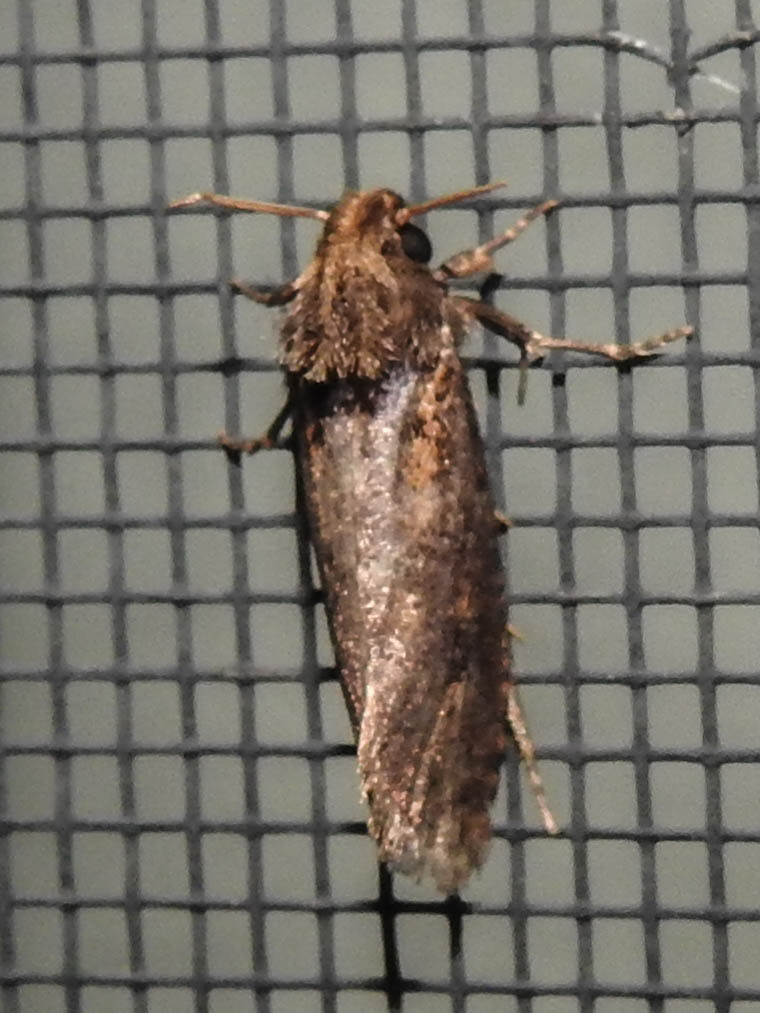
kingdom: Animalia
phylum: Arthropoda
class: Insecta
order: Lepidoptera
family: Tineidae
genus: Acrolophus
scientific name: Acrolophus popeanella
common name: Clemens' grass tubeworm moth
